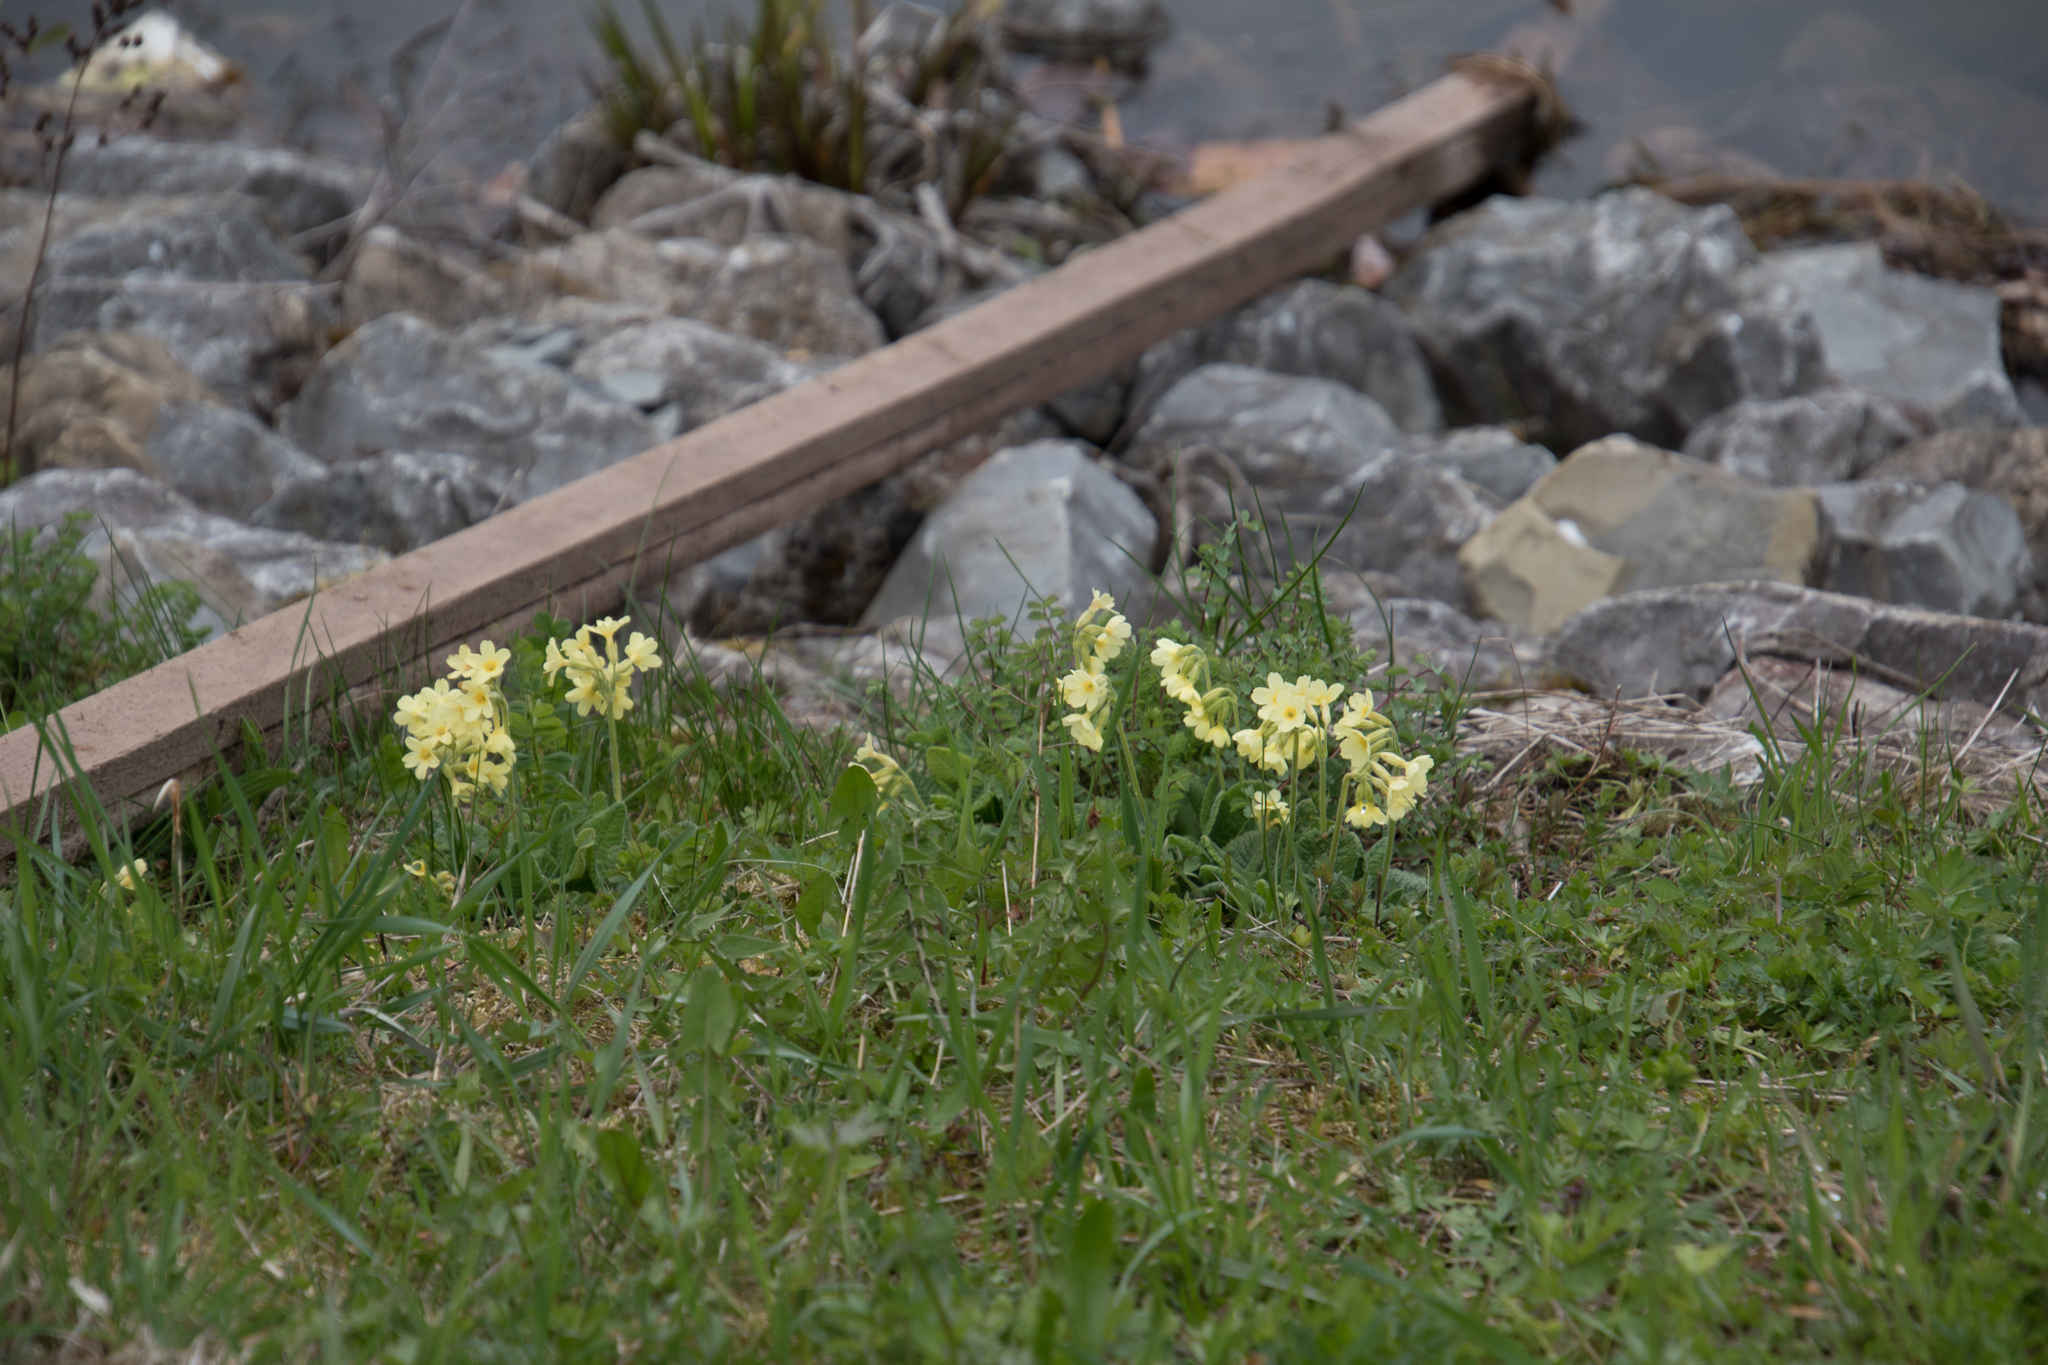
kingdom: Plantae
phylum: Tracheophyta
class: Magnoliopsida
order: Ericales
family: Primulaceae
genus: Primula
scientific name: Primula elatior
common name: Oxlip
